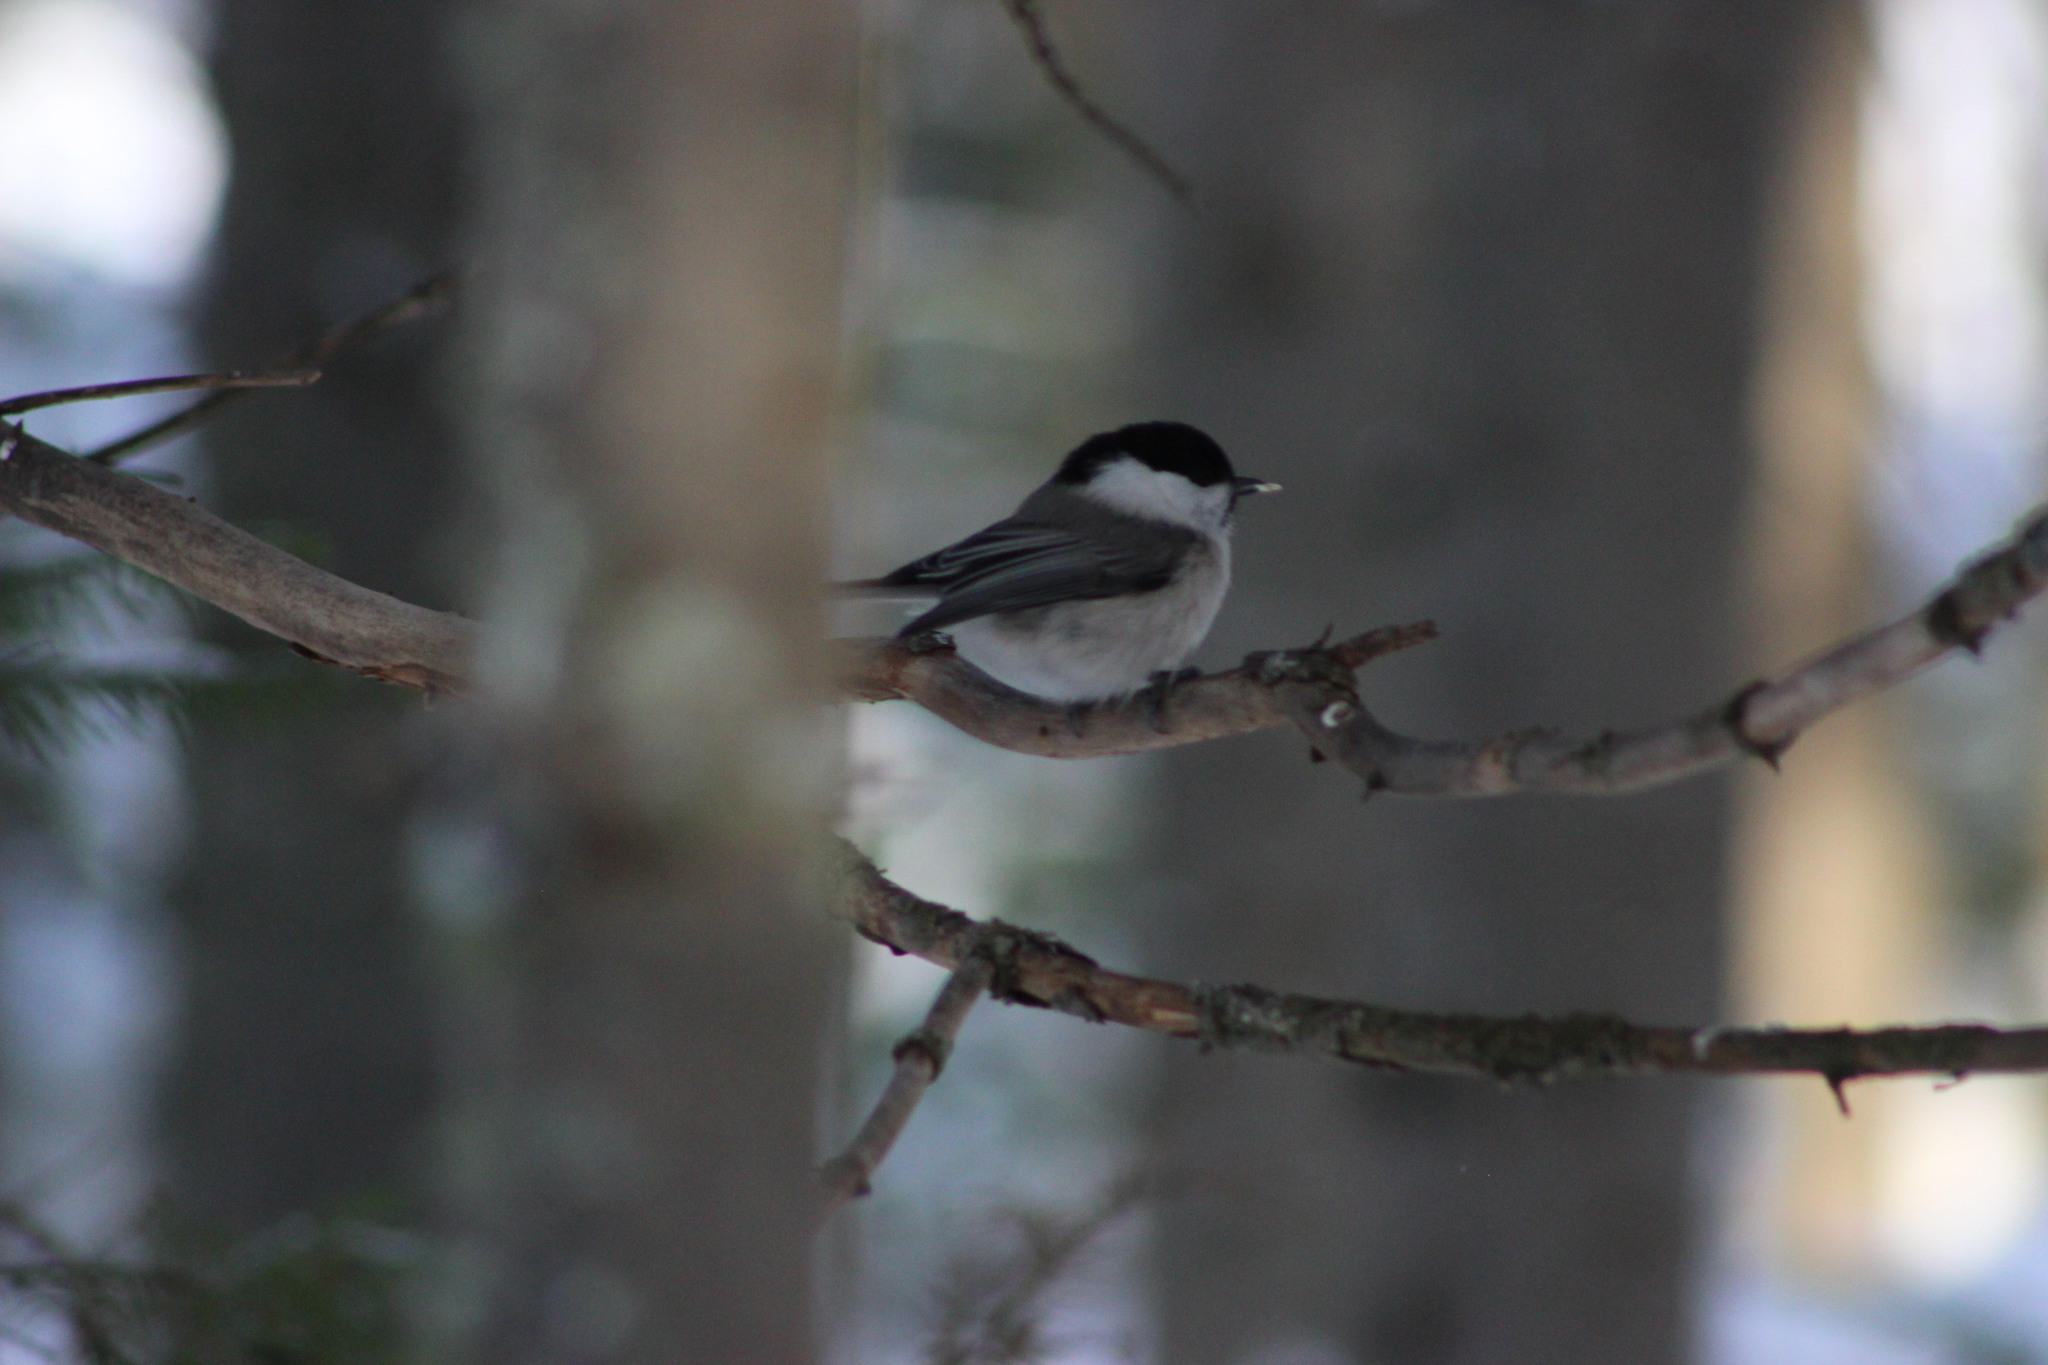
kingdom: Animalia
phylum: Chordata
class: Aves
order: Passeriformes
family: Paridae
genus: Poecile
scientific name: Poecile montanus
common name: Willow tit
